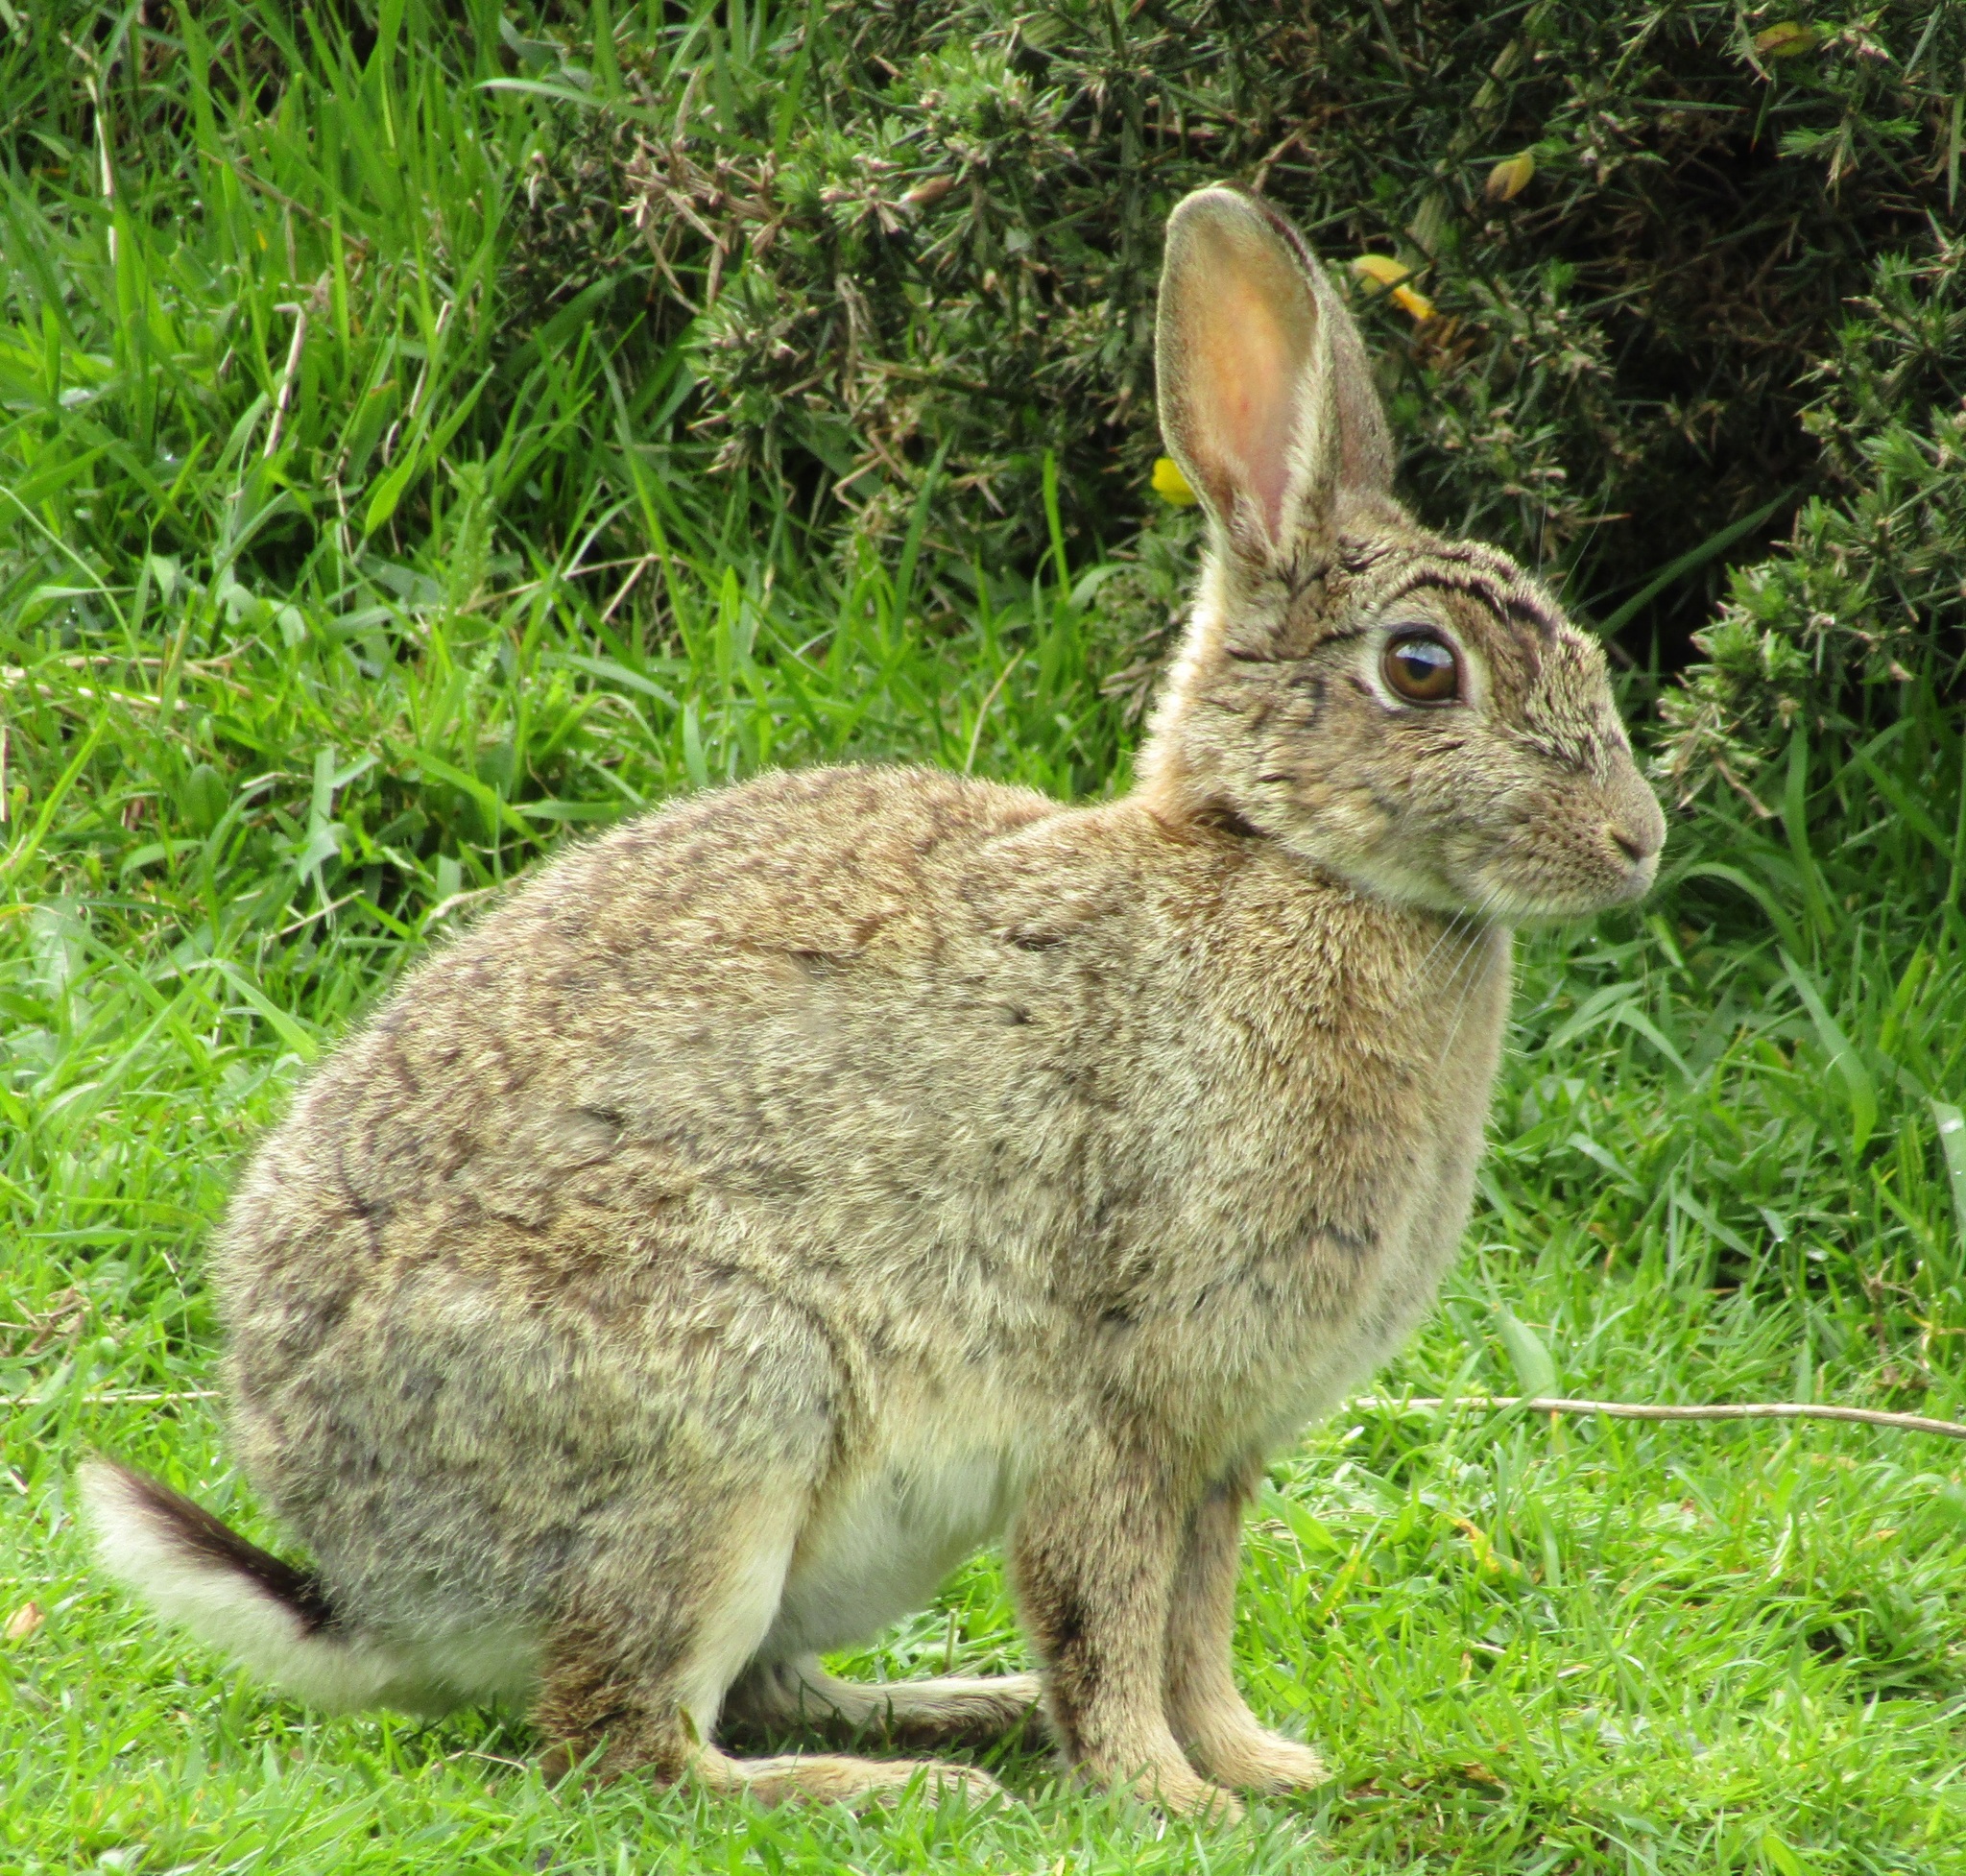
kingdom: Animalia
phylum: Chordata
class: Mammalia
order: Lagomorpha
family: Leporidae
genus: Oryctolagus
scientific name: Oryctolagus cuniculus
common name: European rabbit
